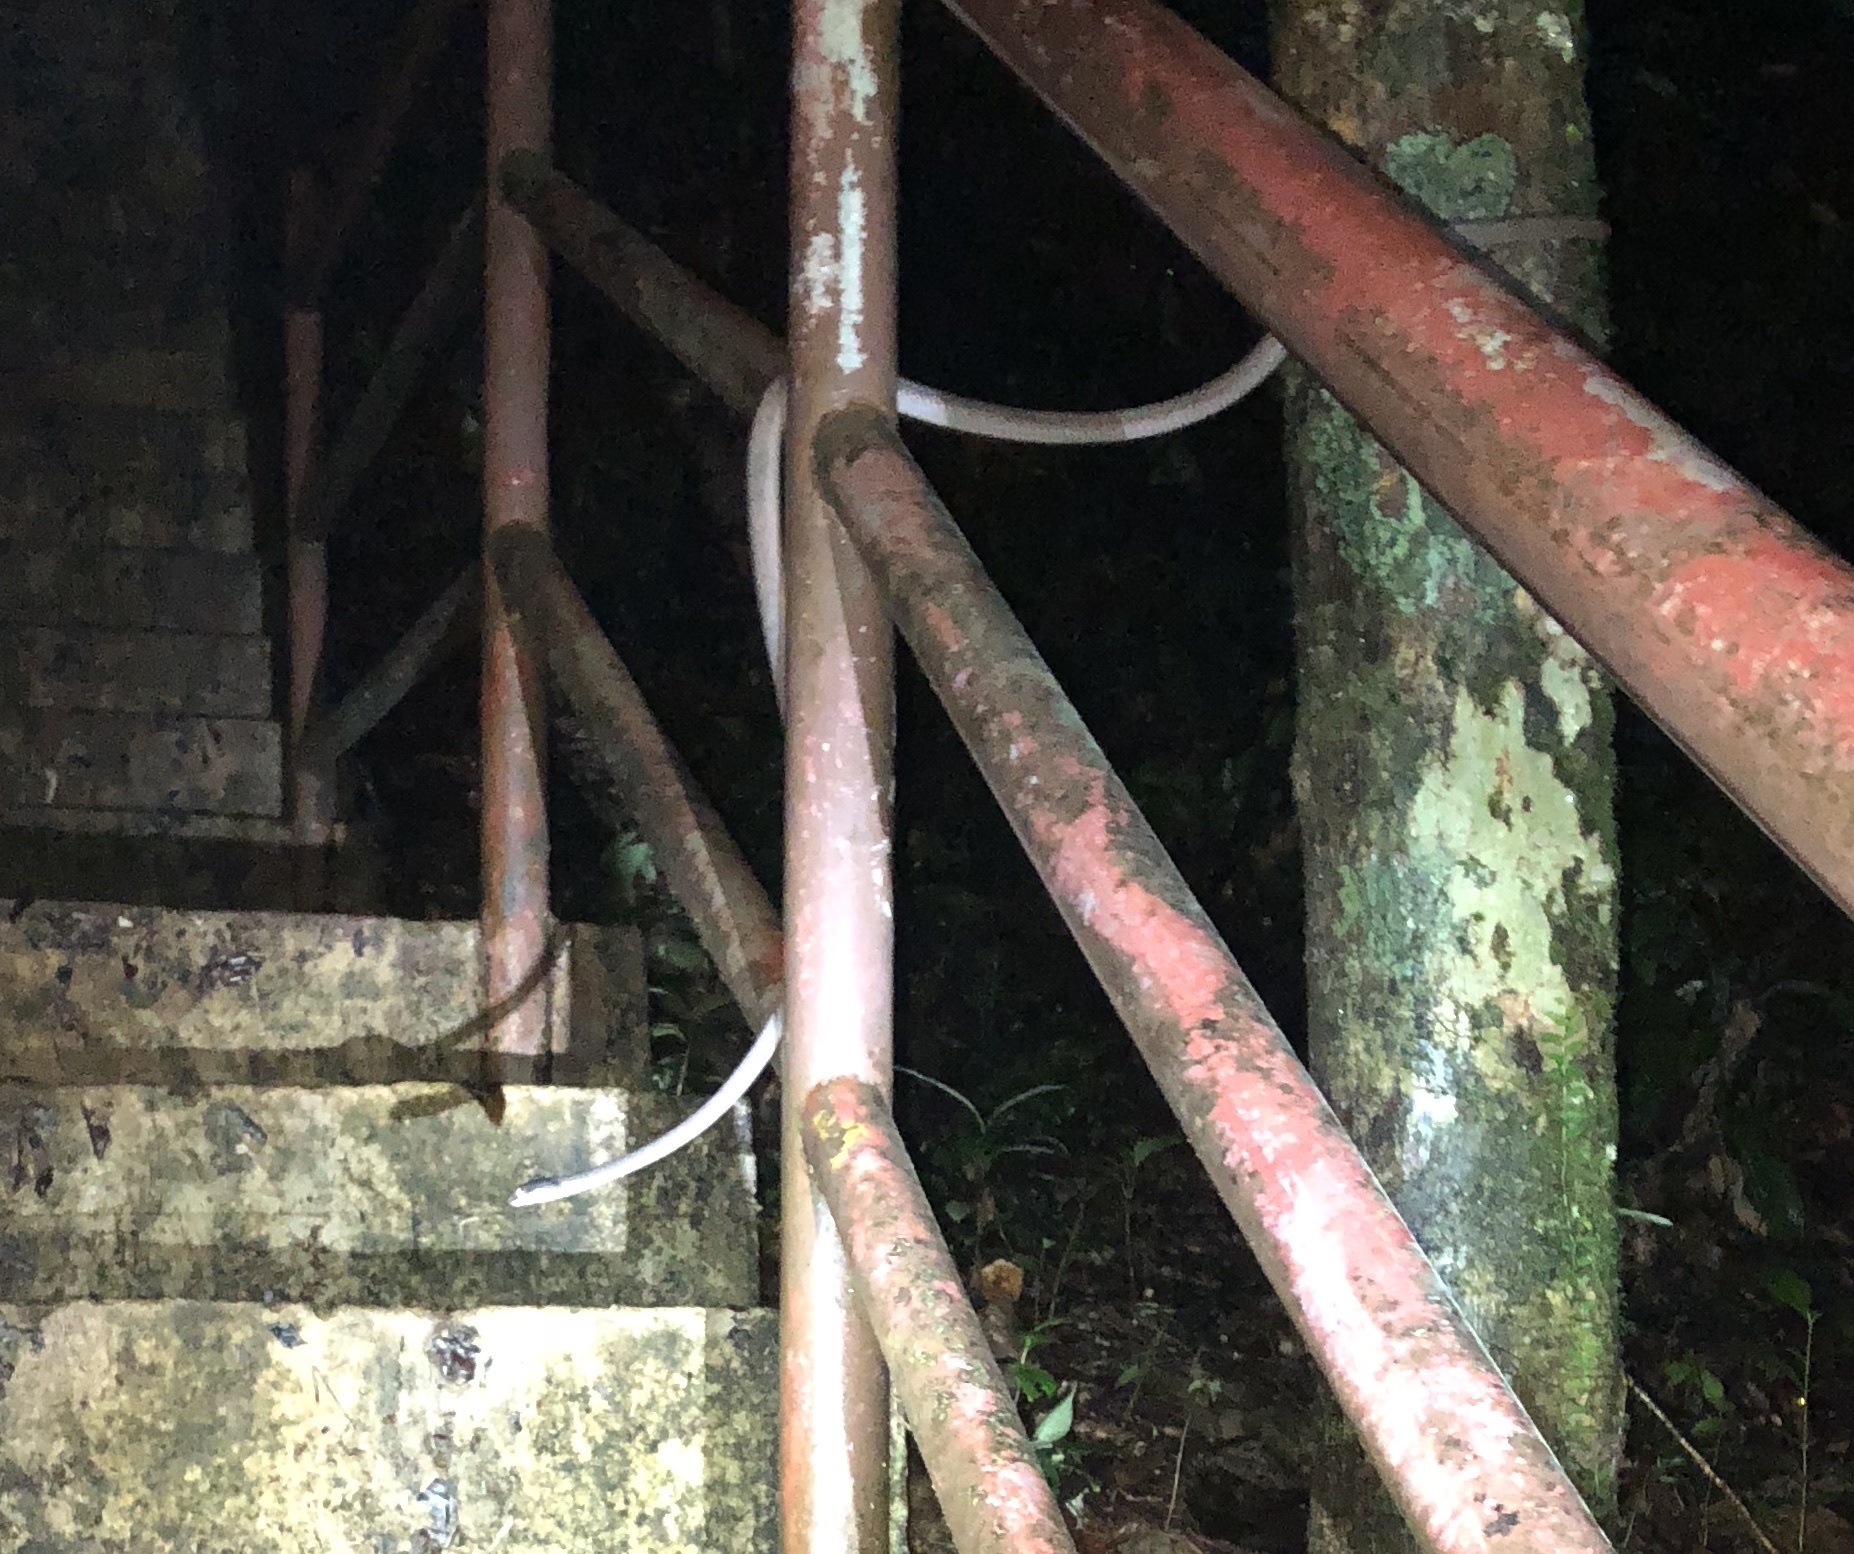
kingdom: Animalia
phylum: Chordata
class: Squamata
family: Colubridae
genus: Boiga
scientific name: Boiga nigriceps
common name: Black-headed cat snake
